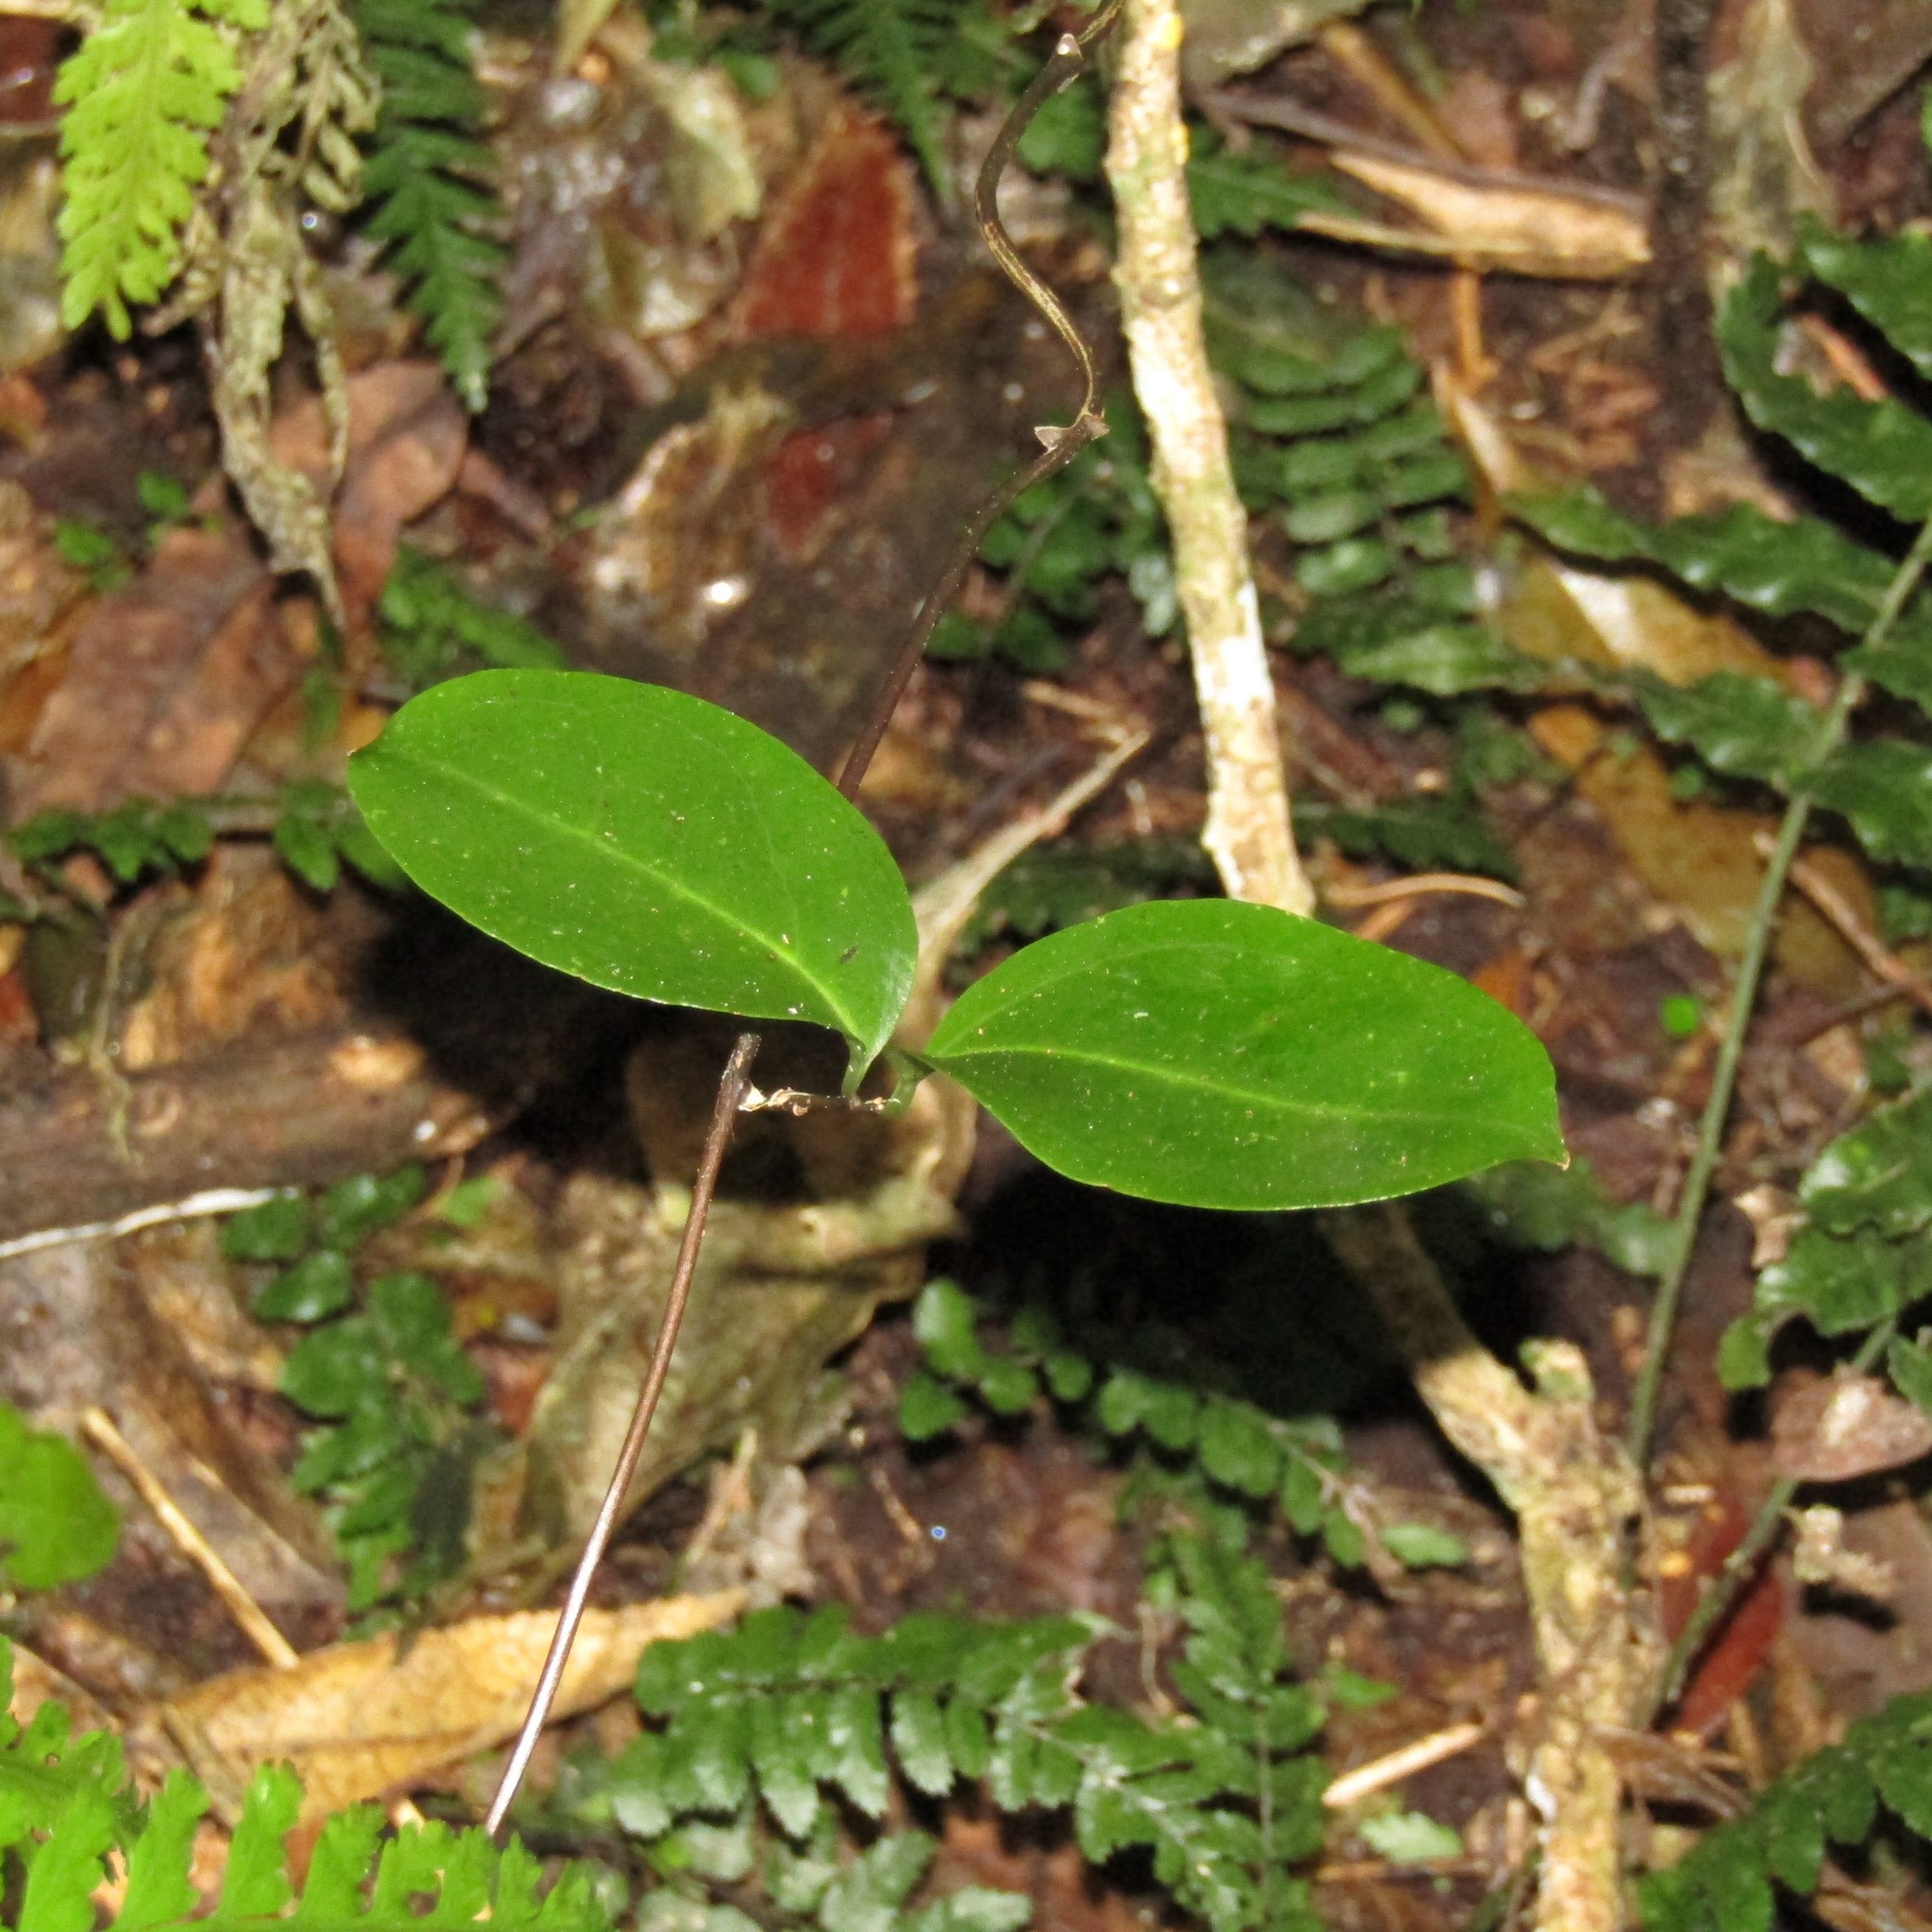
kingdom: Plantae
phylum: Tracheophyta
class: Magnoliopsida
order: Myrtales
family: Myrtaceae
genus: Metrosideros
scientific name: Metrosideros fulgens
